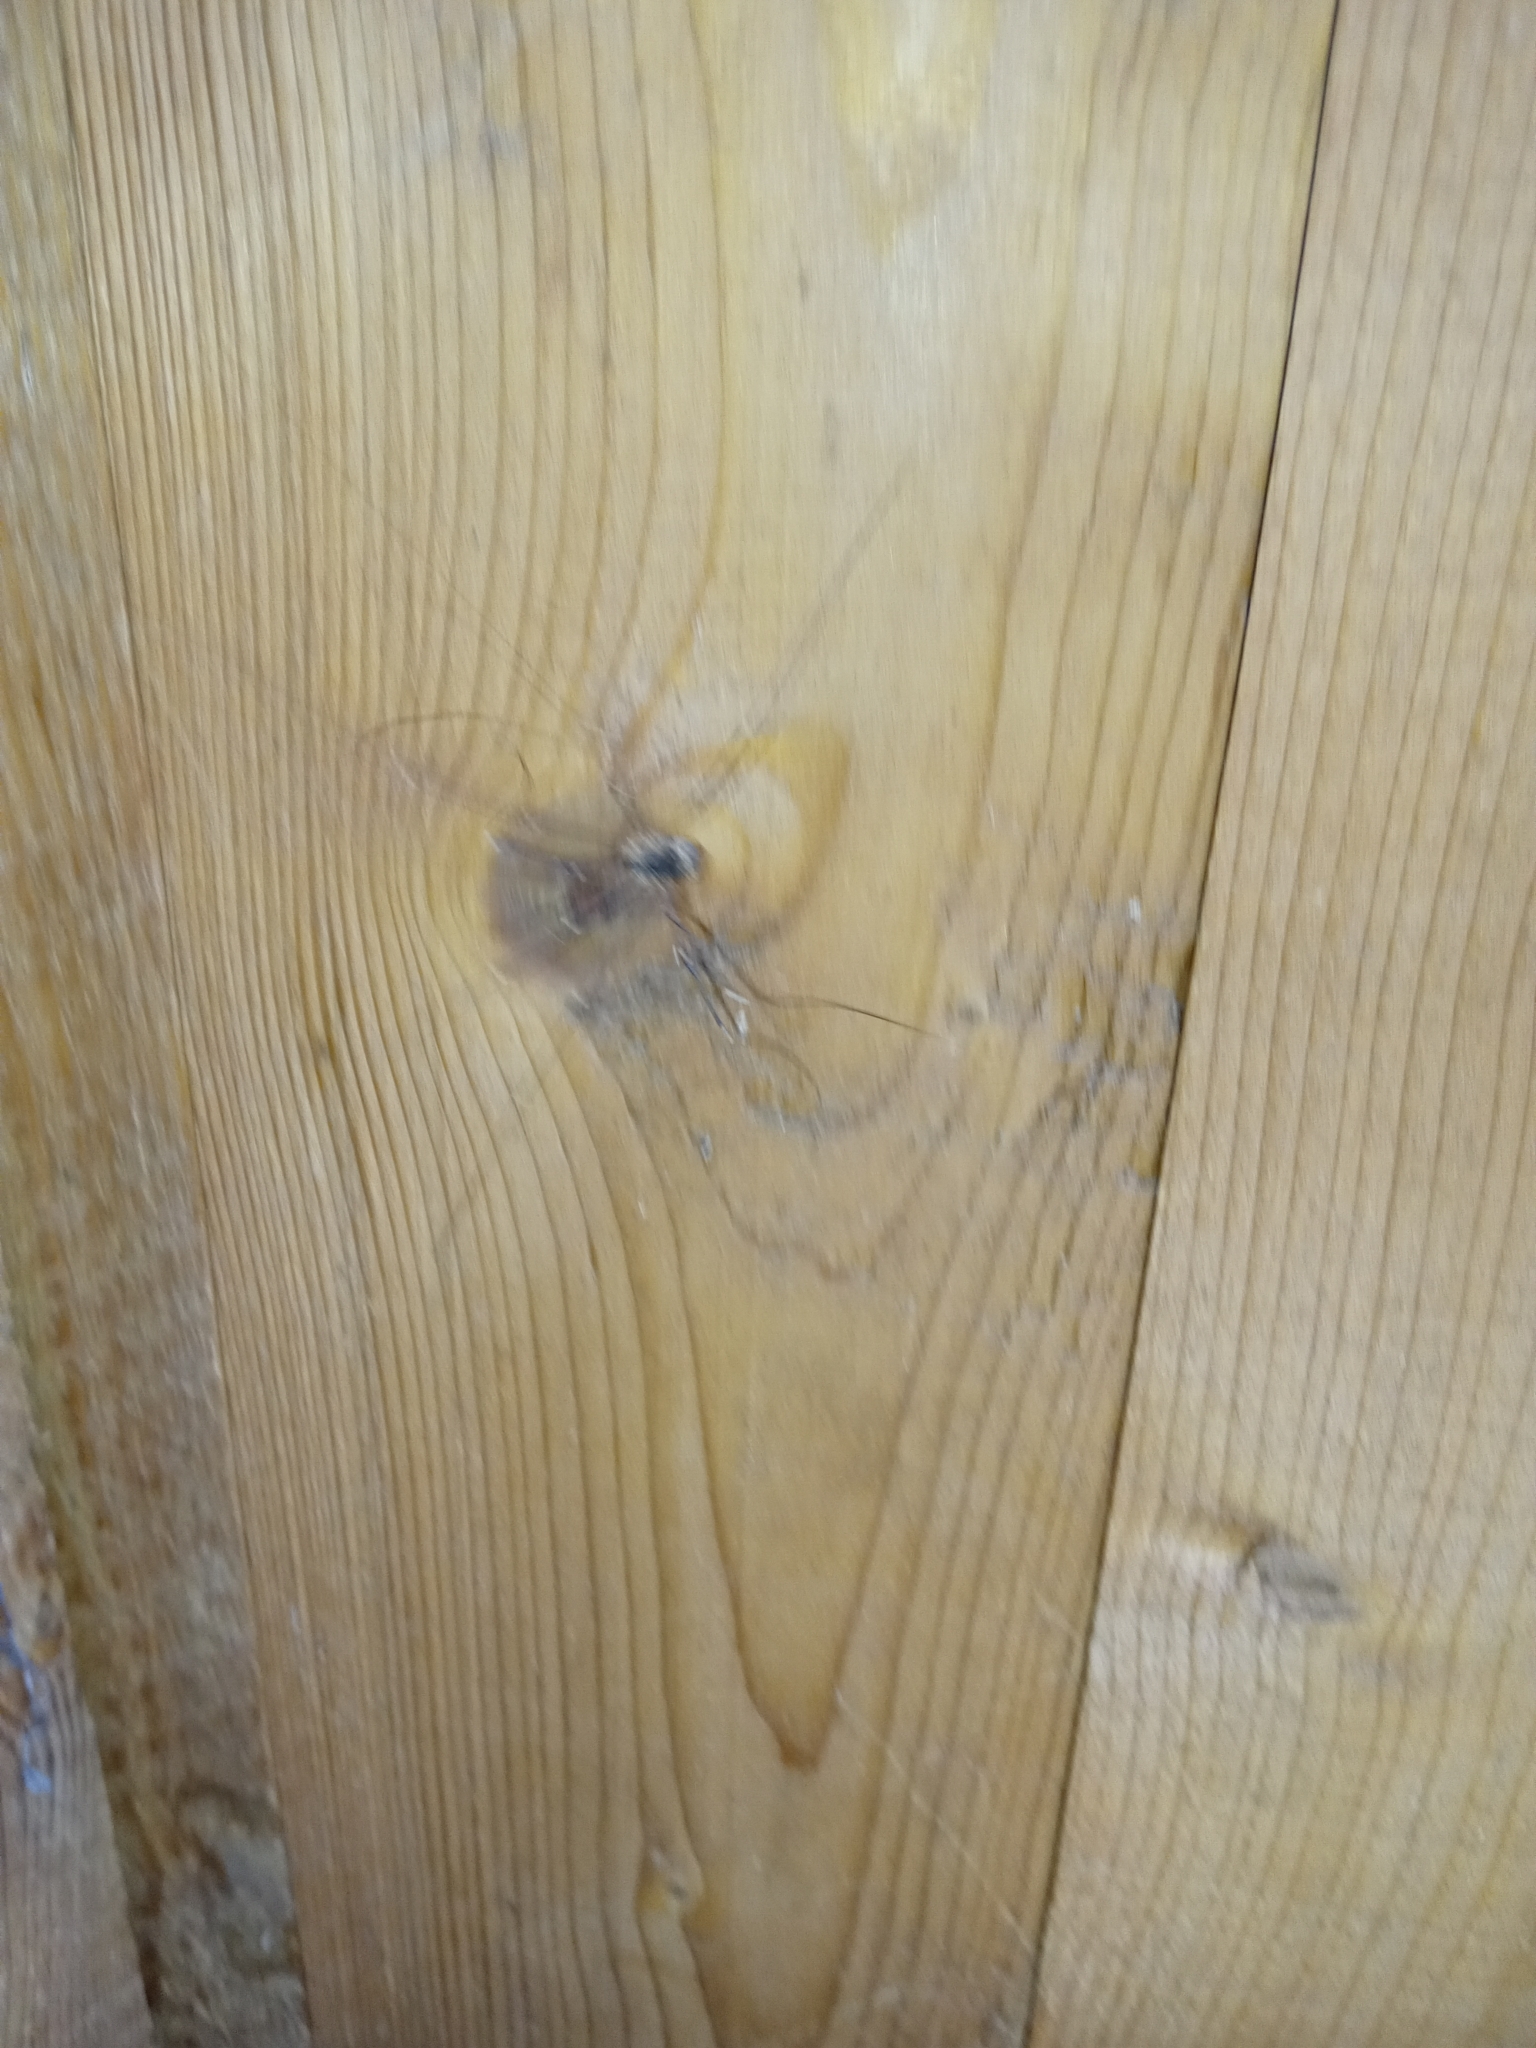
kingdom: Animalia
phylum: Arthropoda
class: Arachnida
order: Opiliones
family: Sclerosomatidae
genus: Leiobunum
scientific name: Leiobunum gracile
